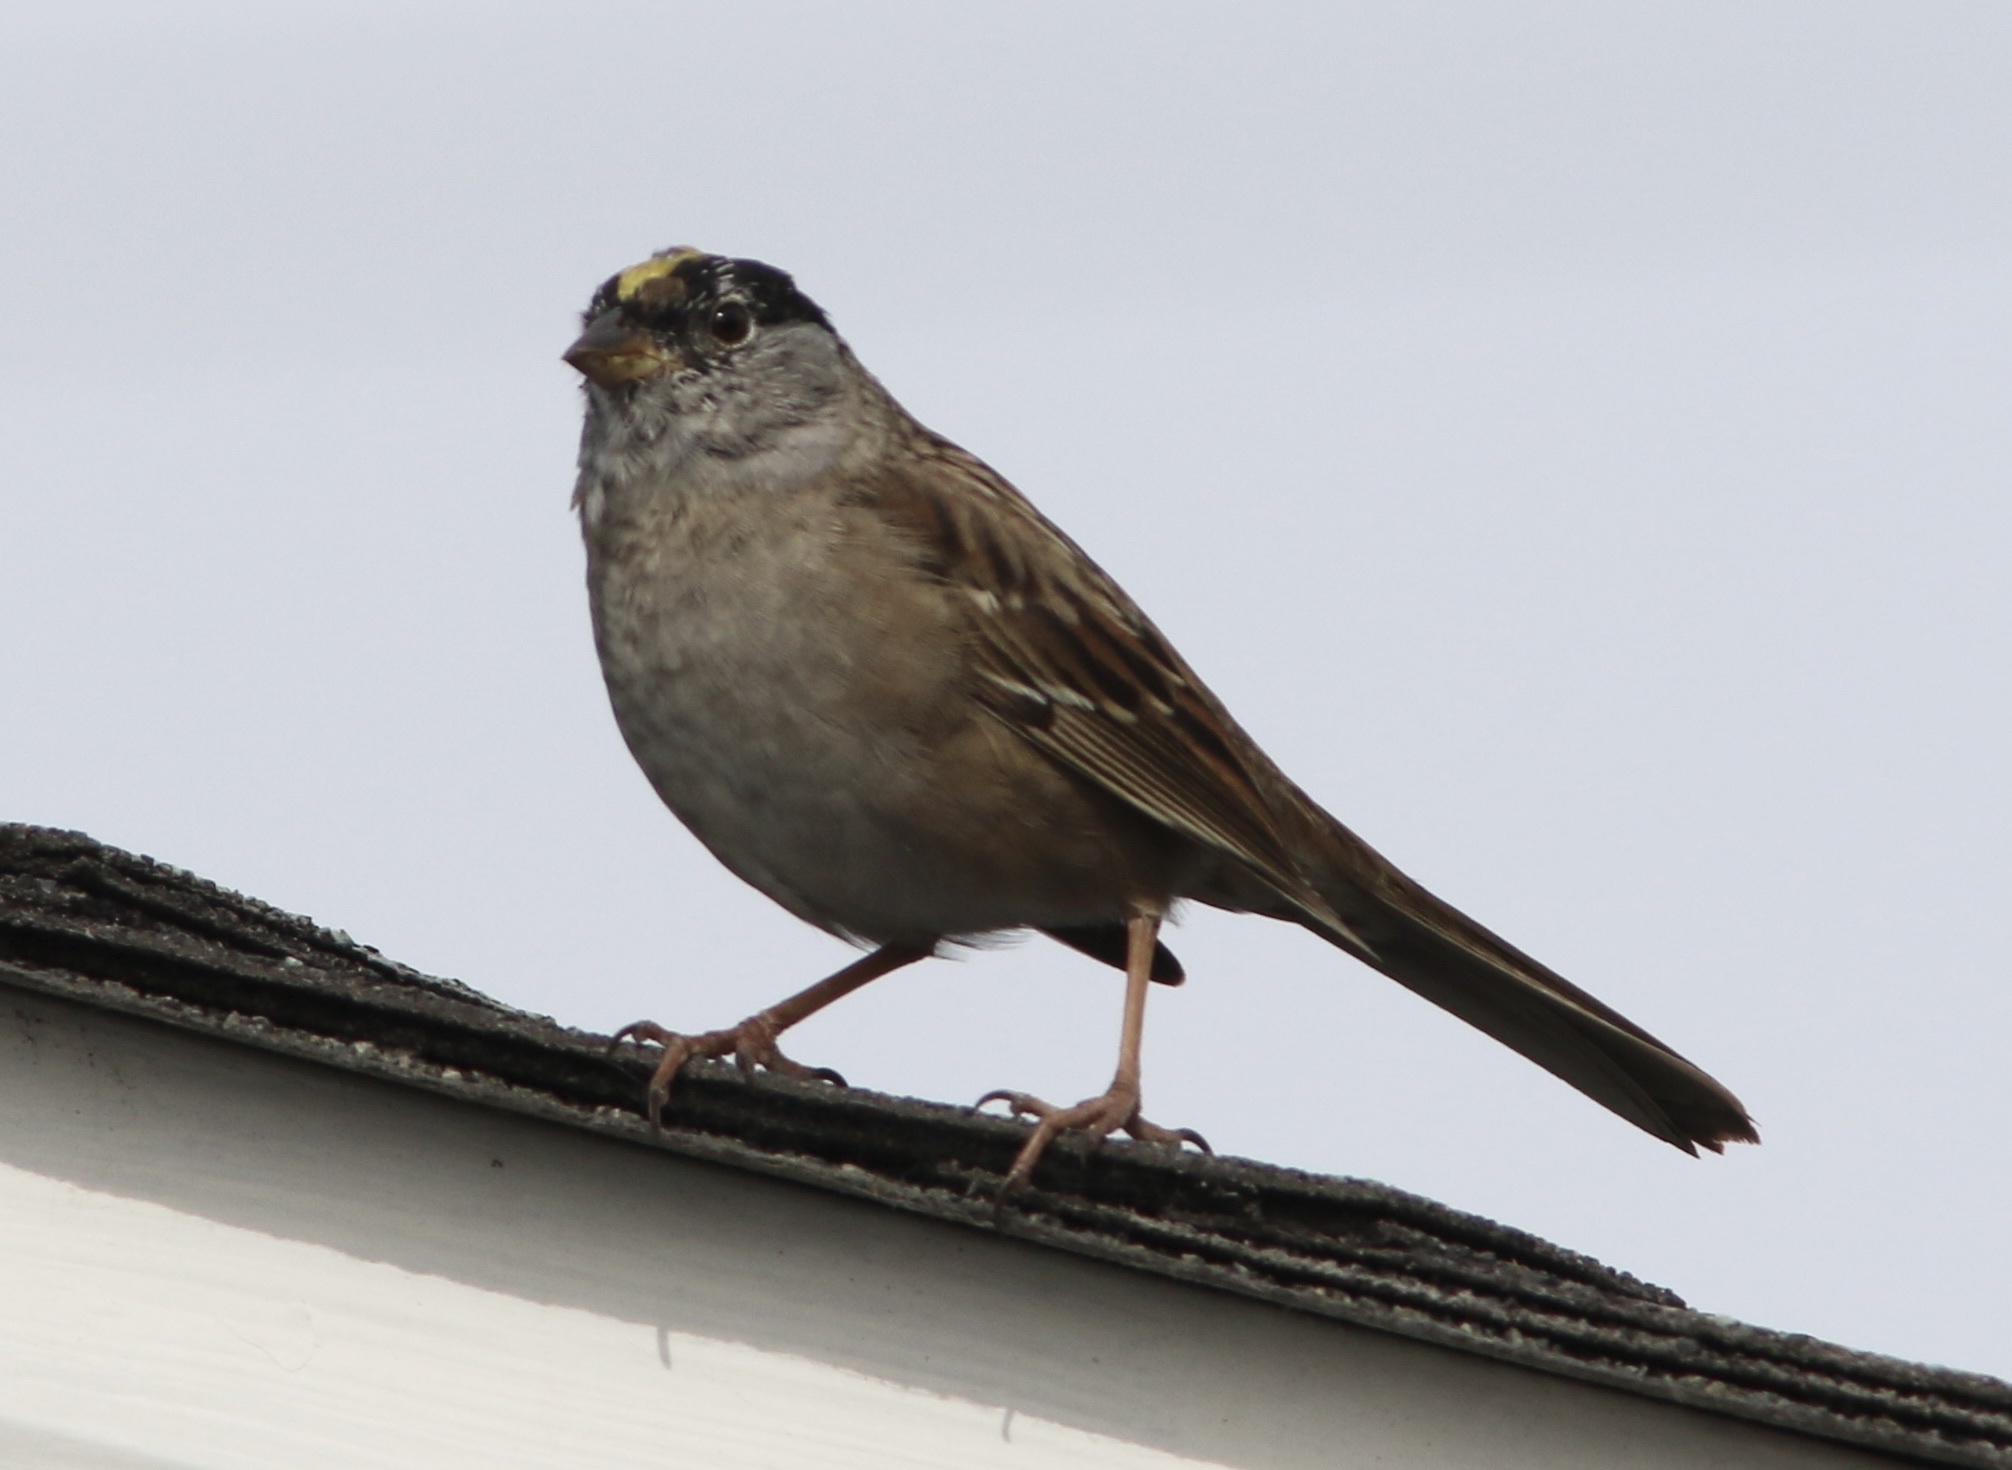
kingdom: Animalia
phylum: Chordata
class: Aves
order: Passeriformes
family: Passerellidae
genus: Zonotrichia
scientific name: Zonotrichia atricapilla
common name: Golden-crowned sparrow
